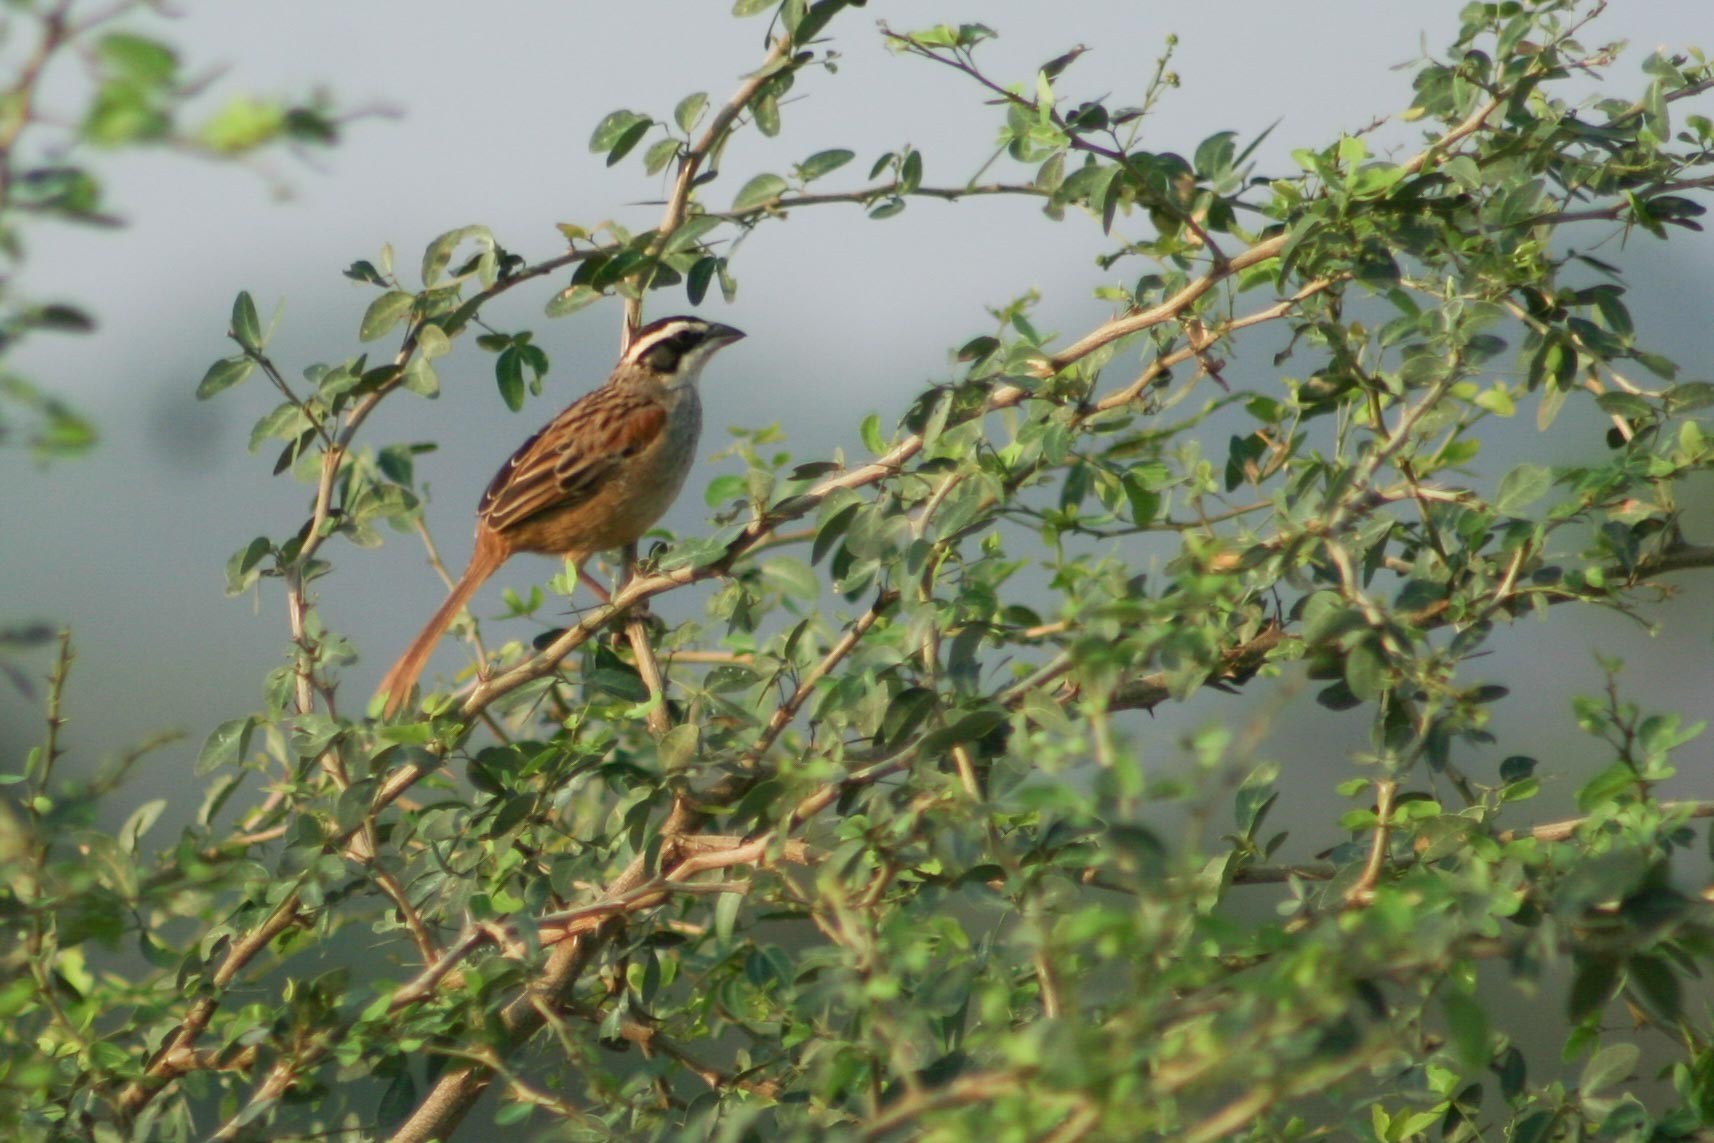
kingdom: Animalia
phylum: Chordata
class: Aves
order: Passeriformes
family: Passerellidae
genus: Peucaea
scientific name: Peucaea ruficauda
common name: Stripe-headed sparrow
